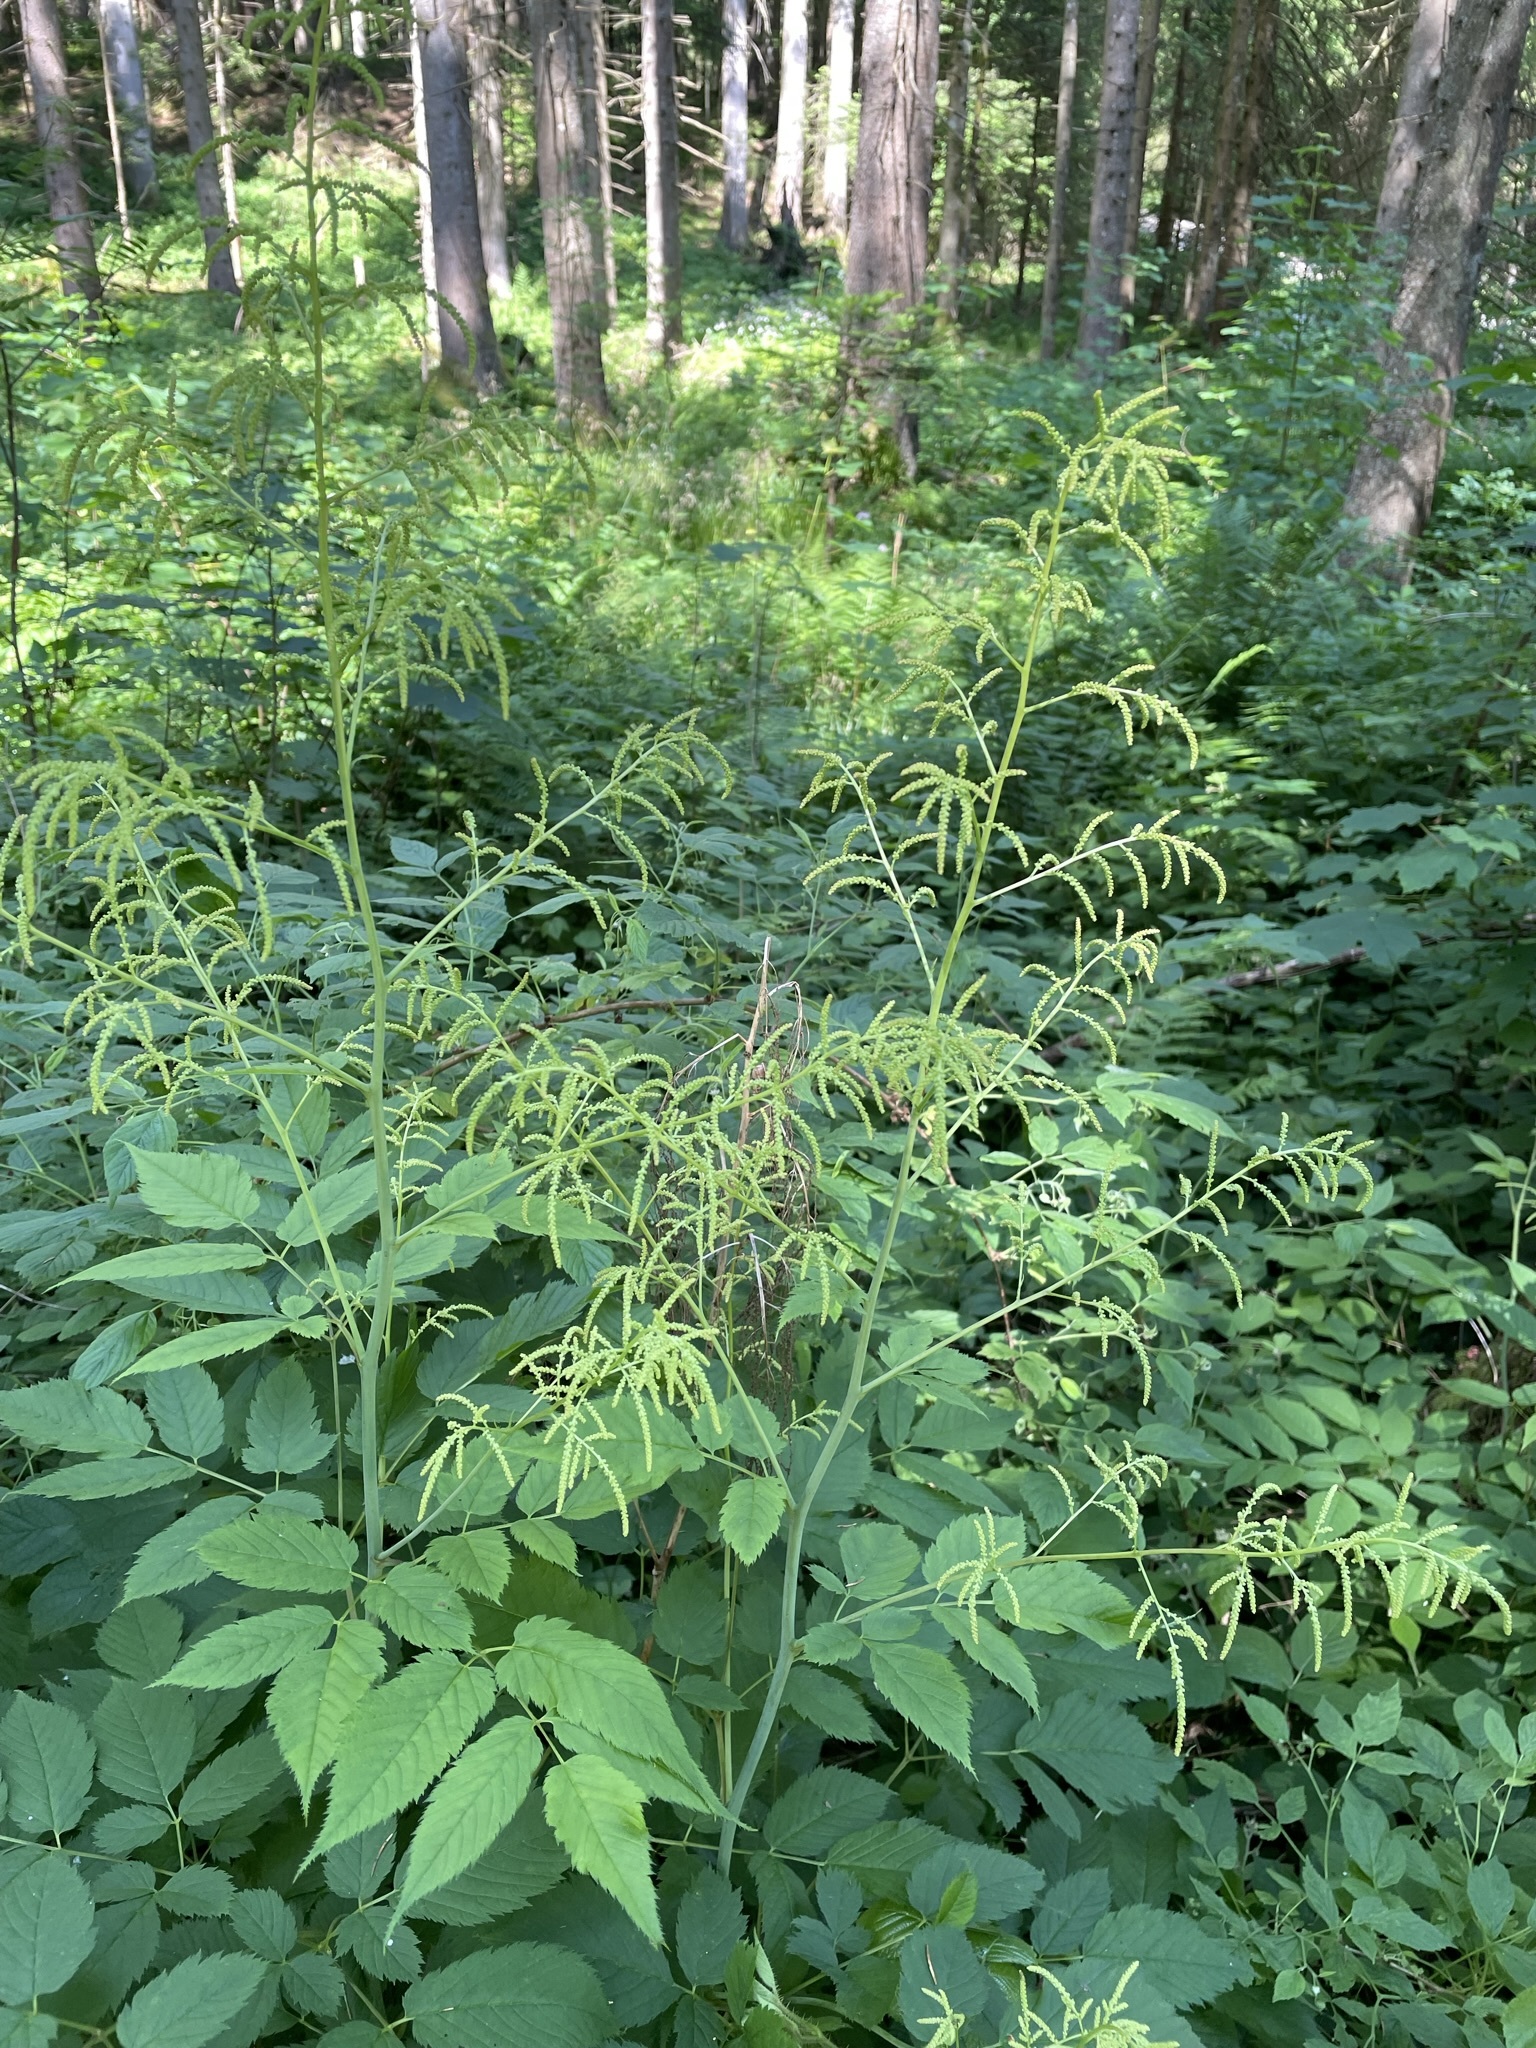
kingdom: Plantae
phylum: Tracheophyta
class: Magnoliopsida
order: Rosales
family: Rosaceae
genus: Aruncus
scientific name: Aruncus dioicus
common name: Buck's-beard
